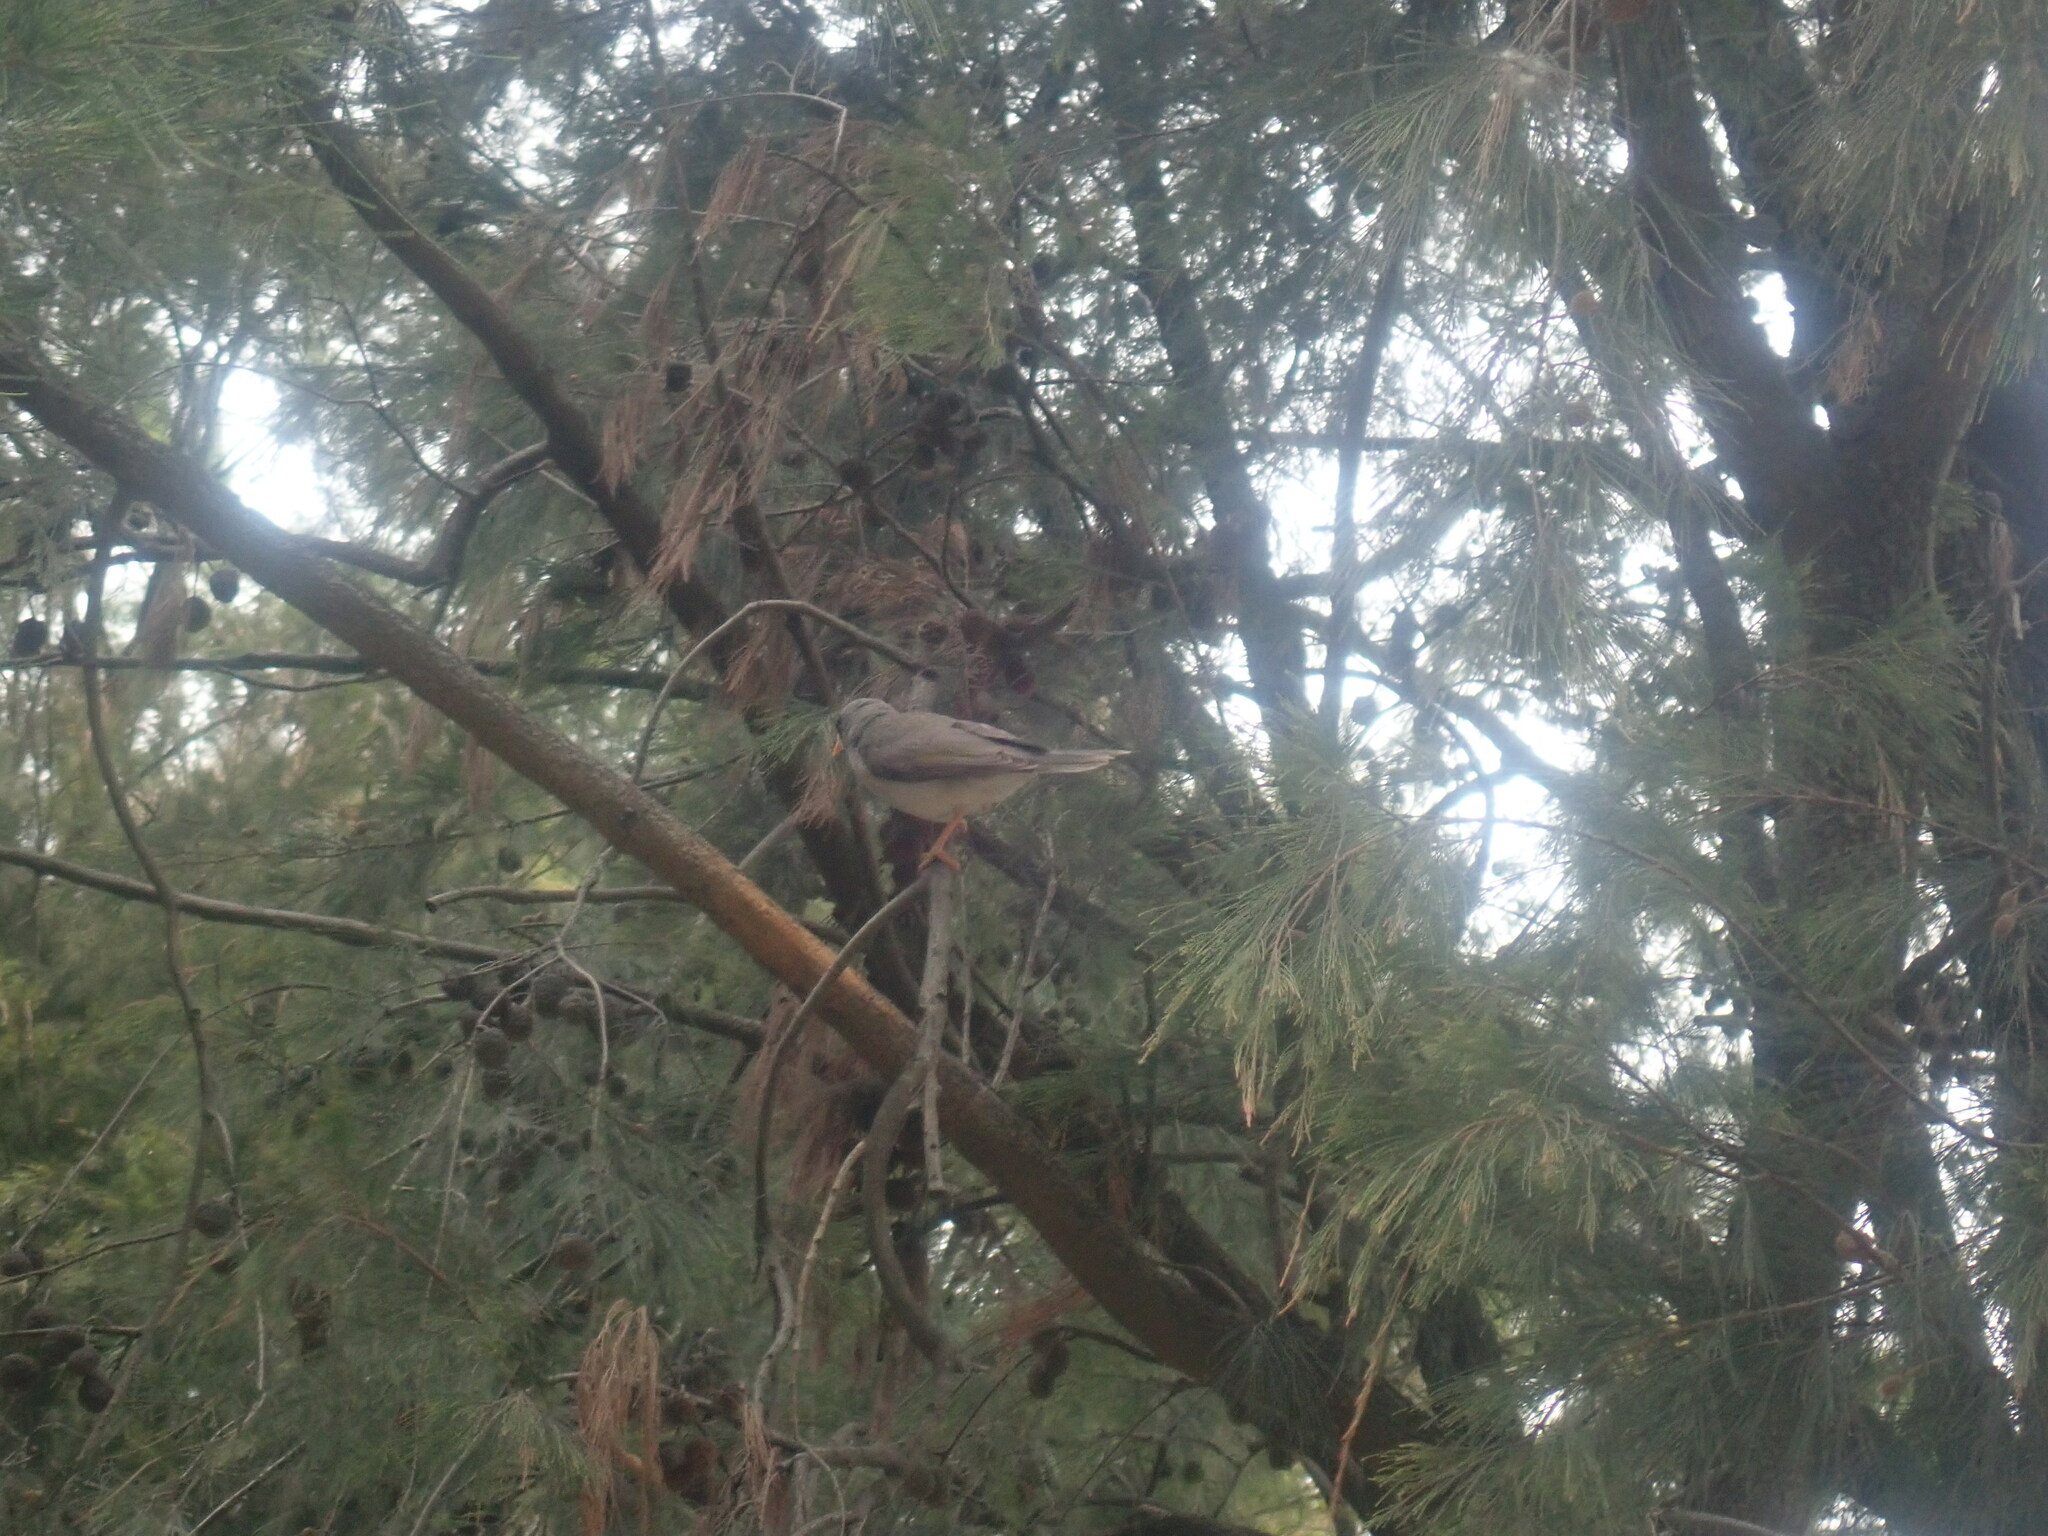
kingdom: Animalia
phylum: Chordata
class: Aves
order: Passeriformes
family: Meliphagidae
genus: Manorina
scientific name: Manorina melanocephala
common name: Noisy miner
